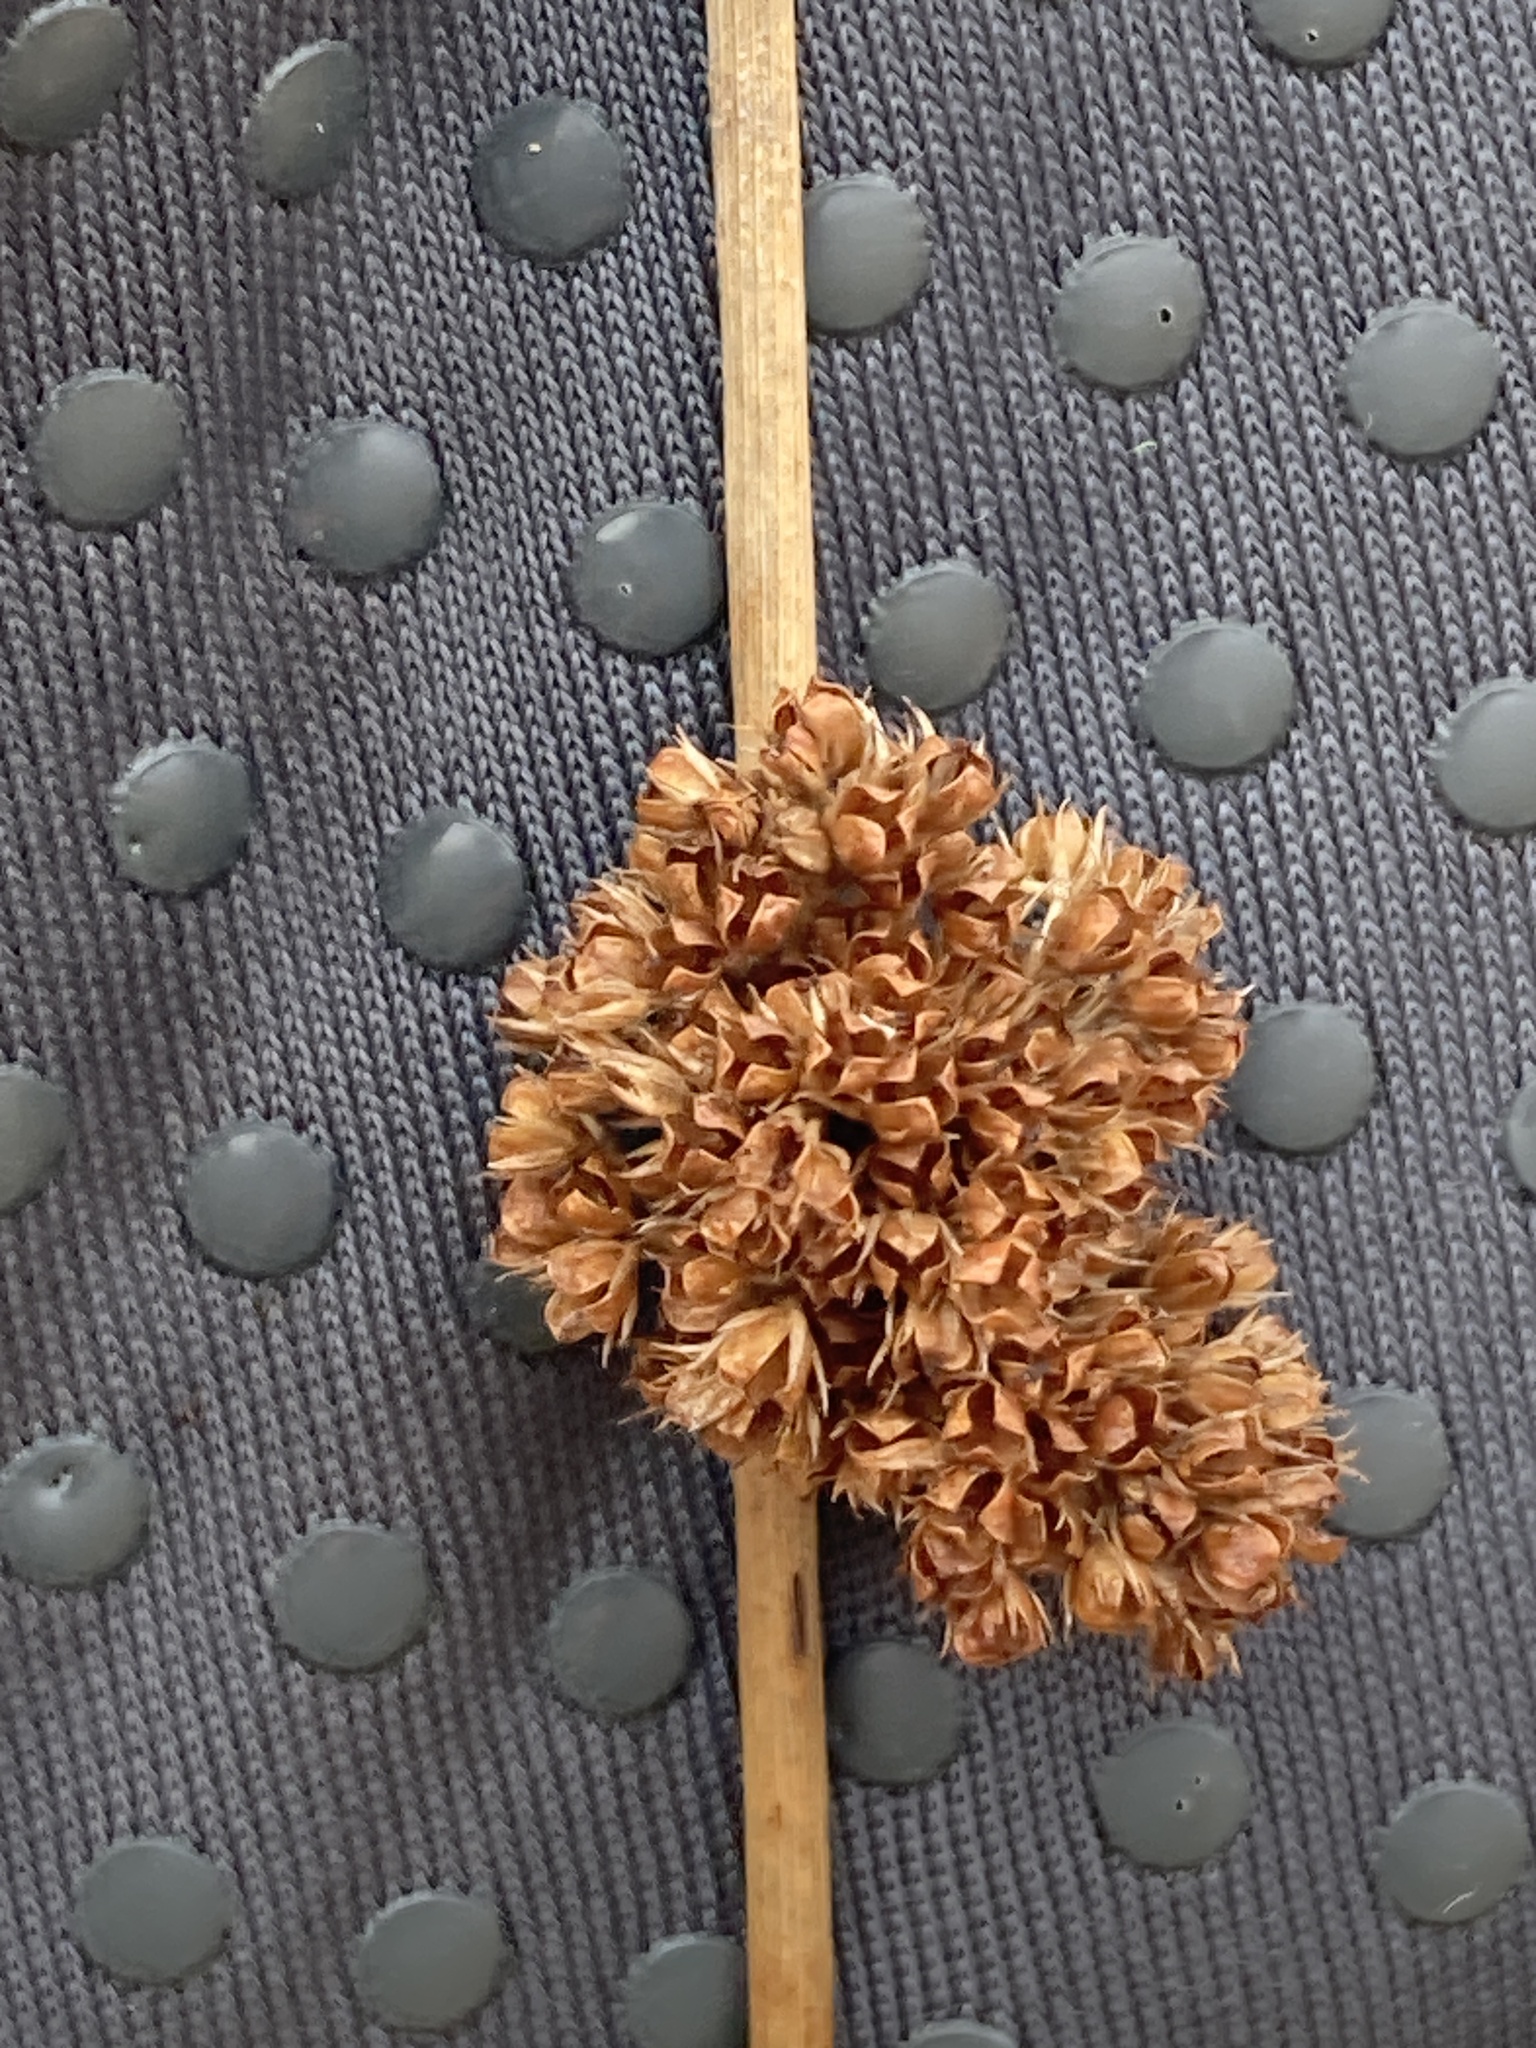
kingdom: Plantae
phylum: Tracheophyta
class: Liliopsida
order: Poales
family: Juncaceae
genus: Juncus
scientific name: Juncus effusus
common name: Soft rush
